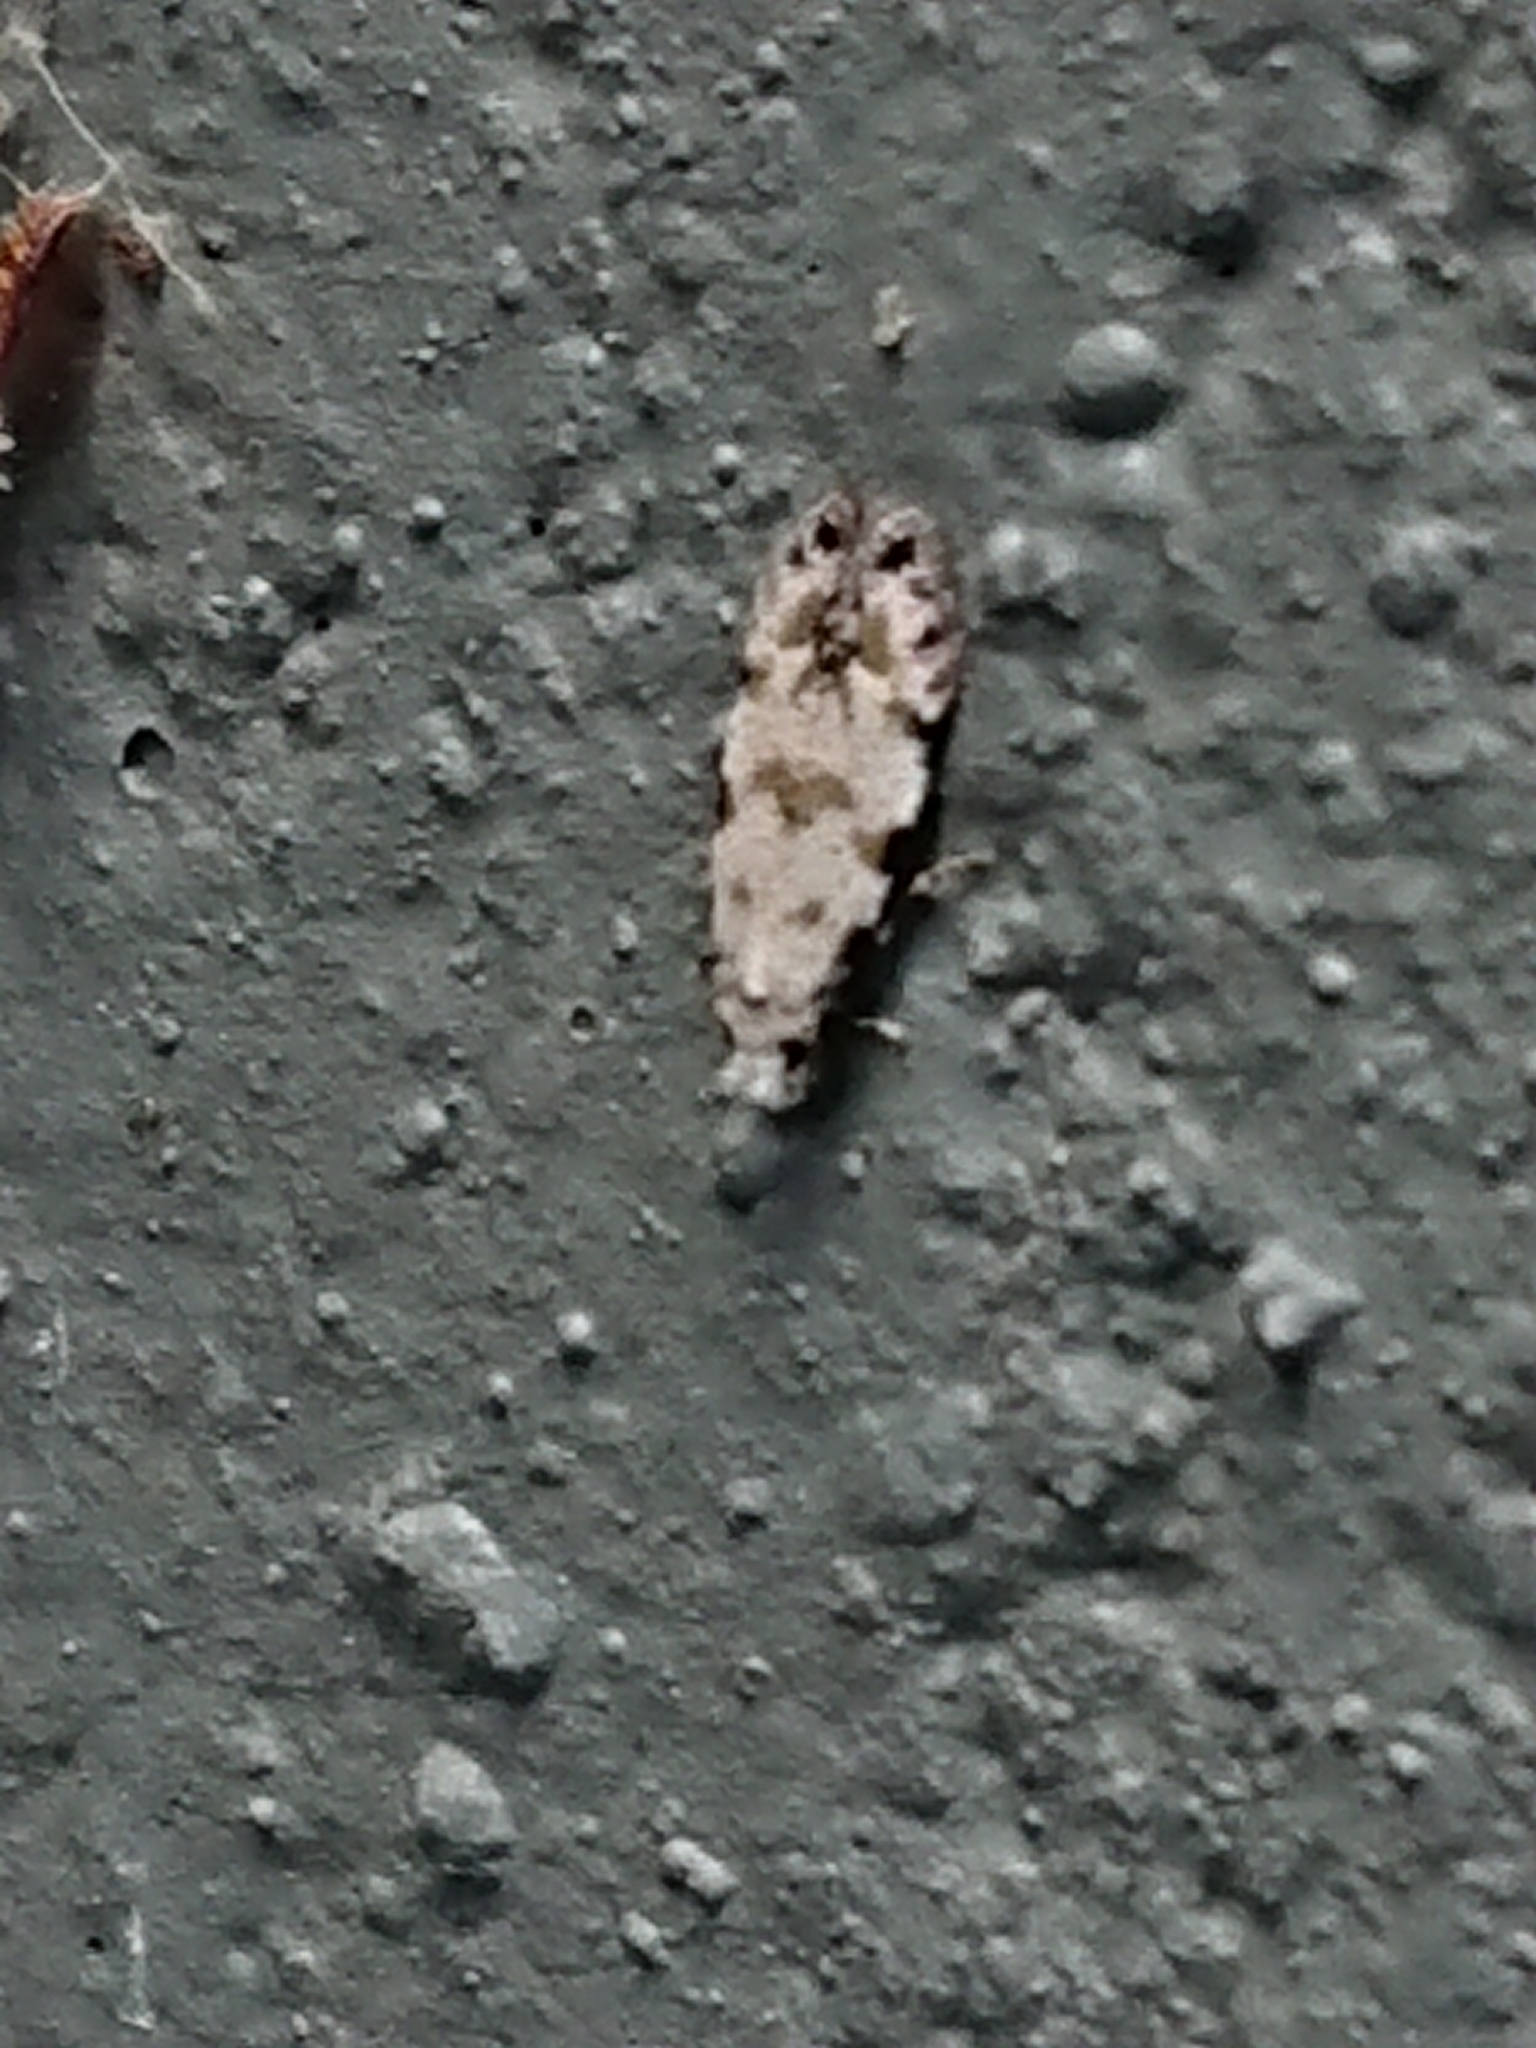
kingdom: Animalia
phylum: Arthropoda
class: Insecta
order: Lepidoptera
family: Tineidae
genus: Crypsitricha
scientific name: Crypsitricha stereota
